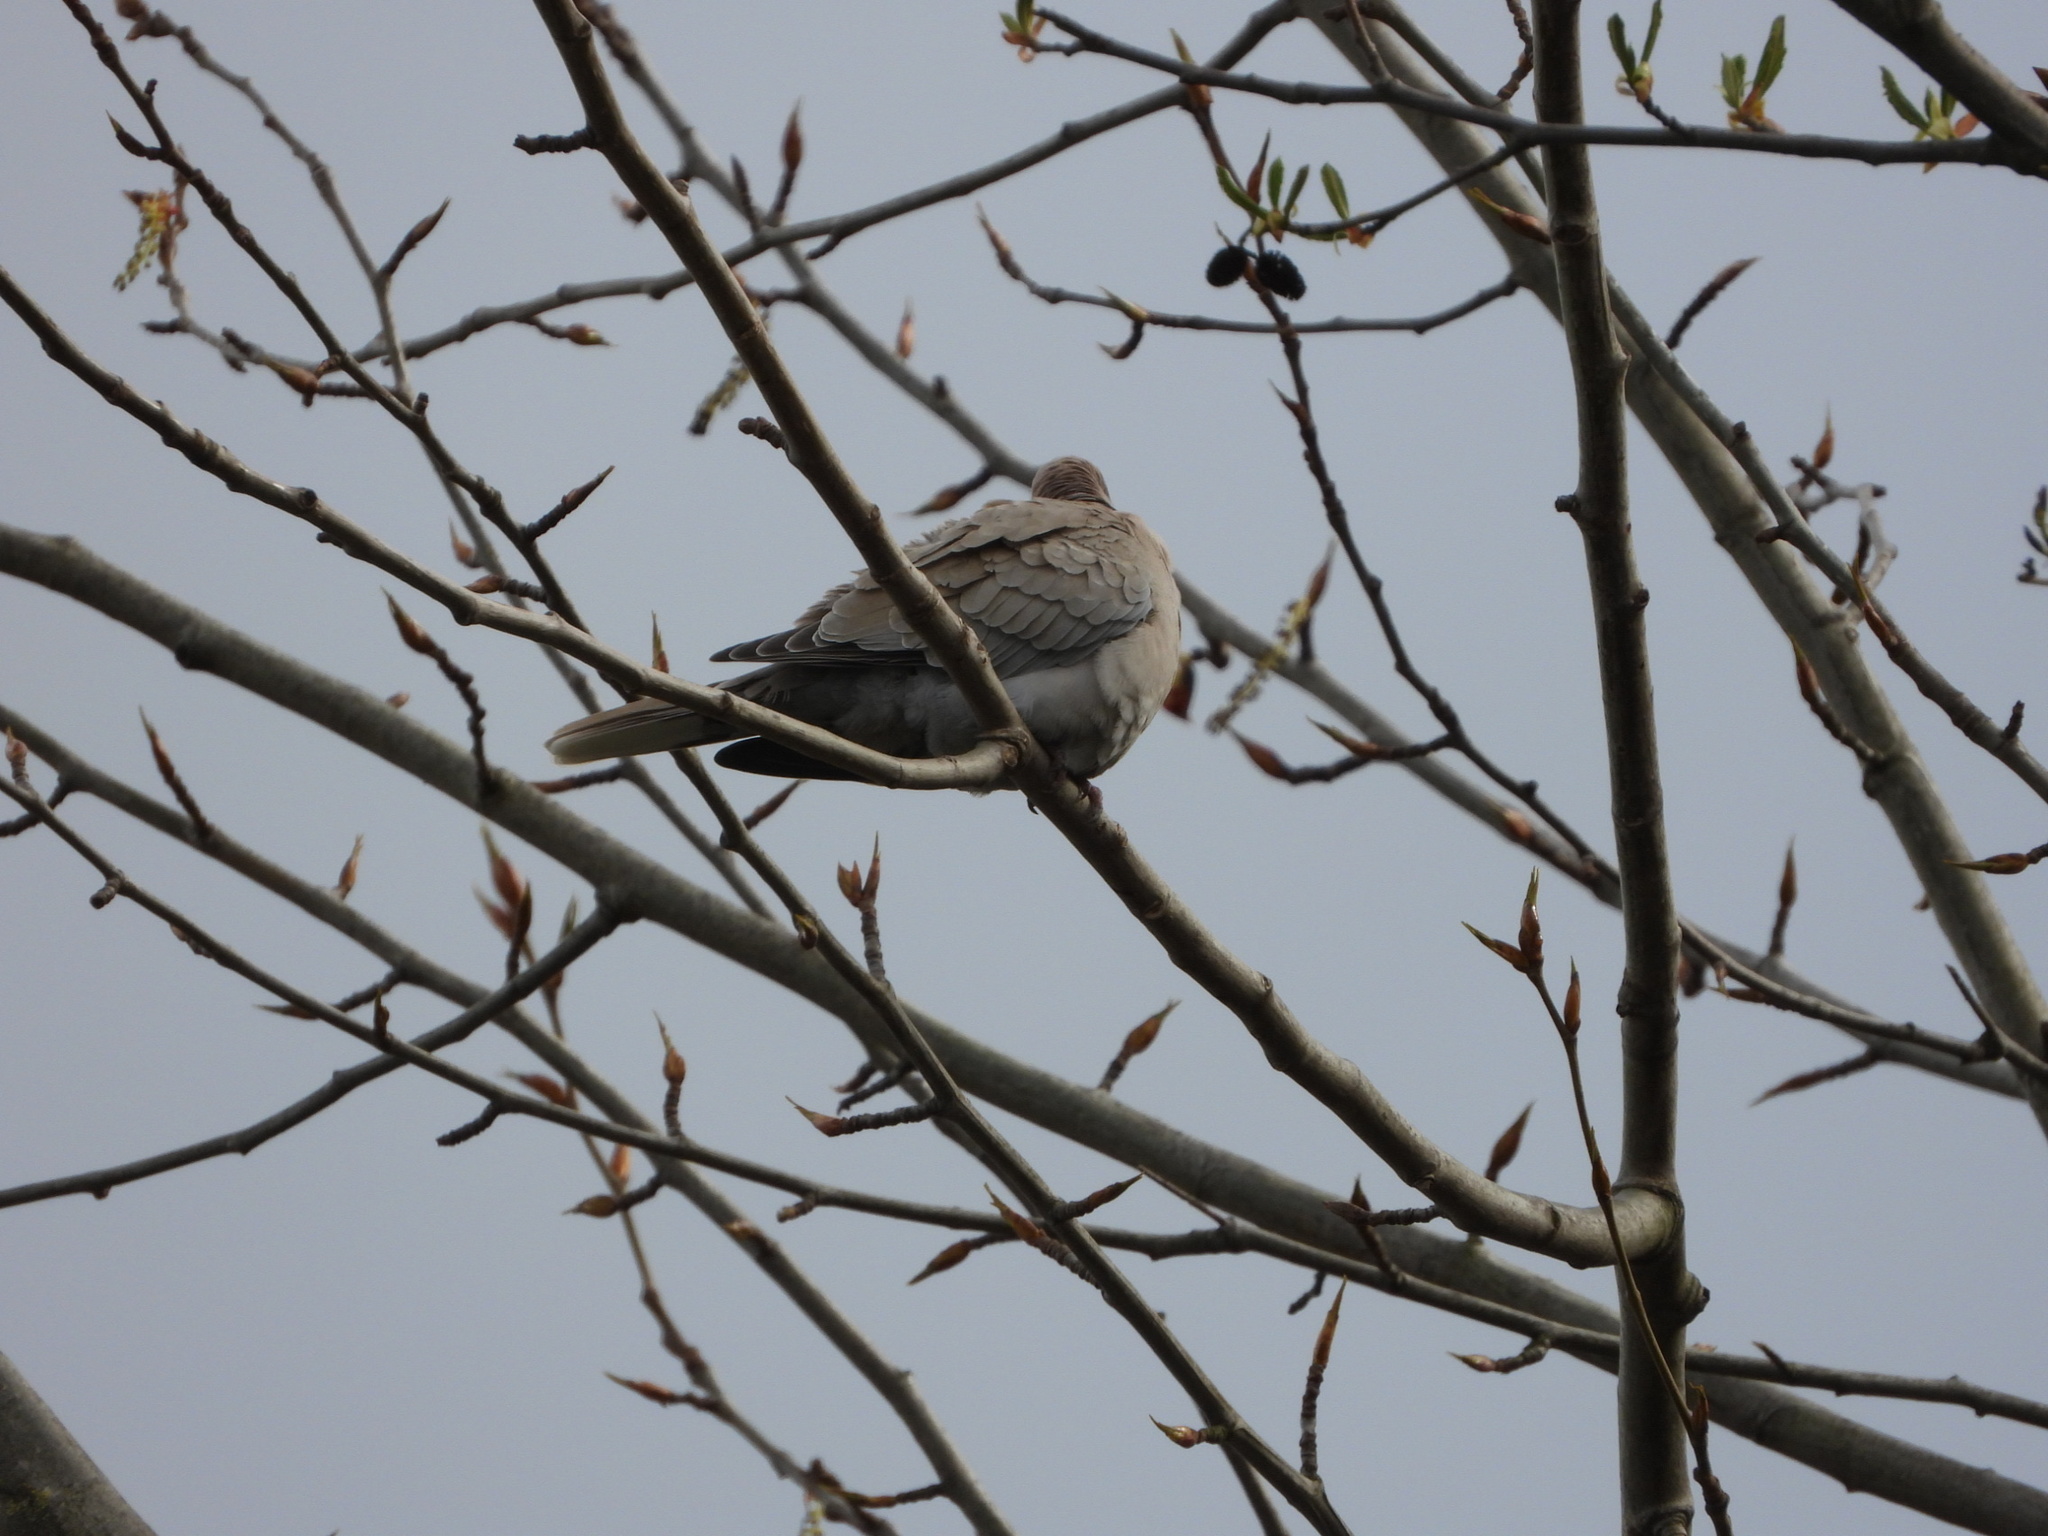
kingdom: Animalia
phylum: Chordata
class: Aves
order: Columbiformes
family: Columbidae
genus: Streptopelia
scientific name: Streptopelia decaocto
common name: Eurasian collared dove
